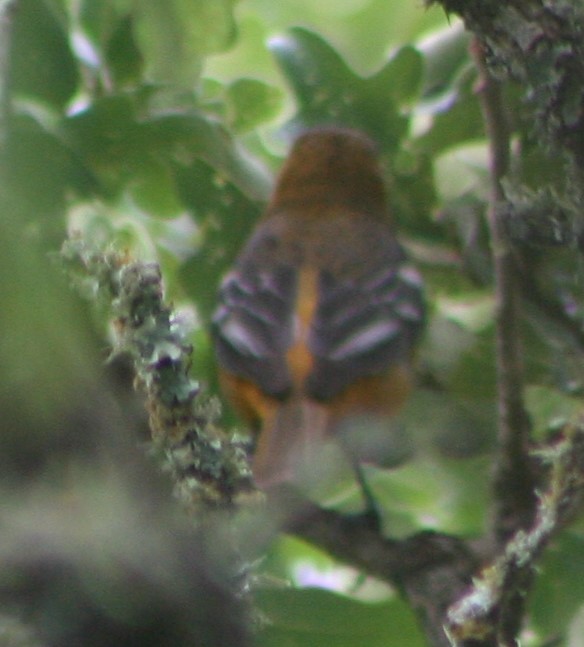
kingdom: Animalia
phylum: Chordata
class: Aves
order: Passeriformes
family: Icteridae
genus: Icterus
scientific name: Icterus galbula
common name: Baltimore oriole
